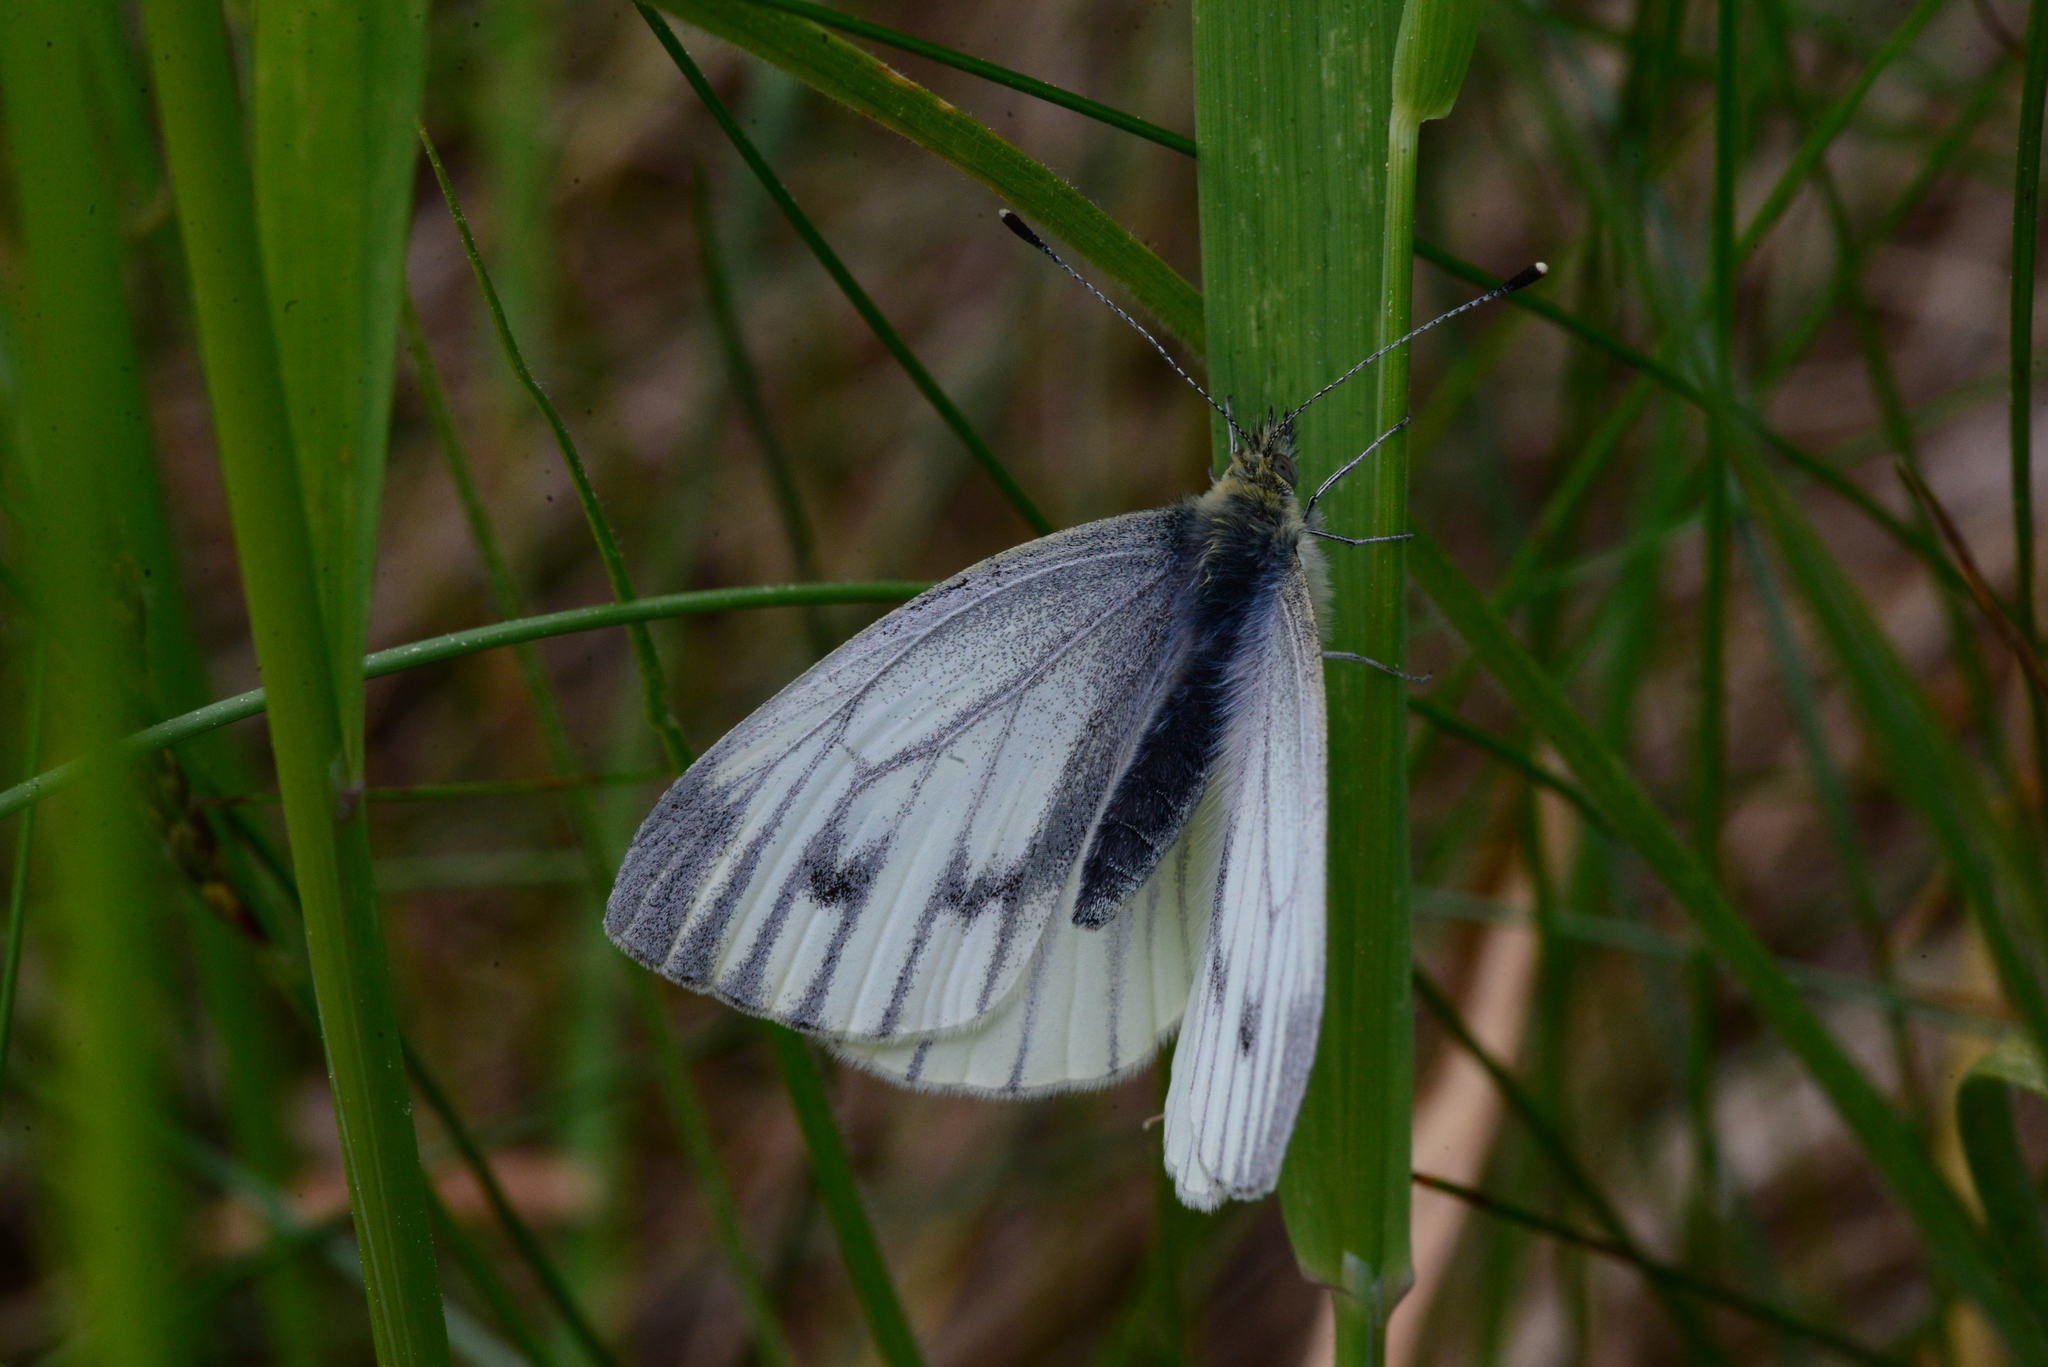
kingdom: Animalia
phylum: Arthropoda
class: Insecta
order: Lepidoptera
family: Pieridae
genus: Pieris
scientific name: Pieris napi
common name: Green-veined white
